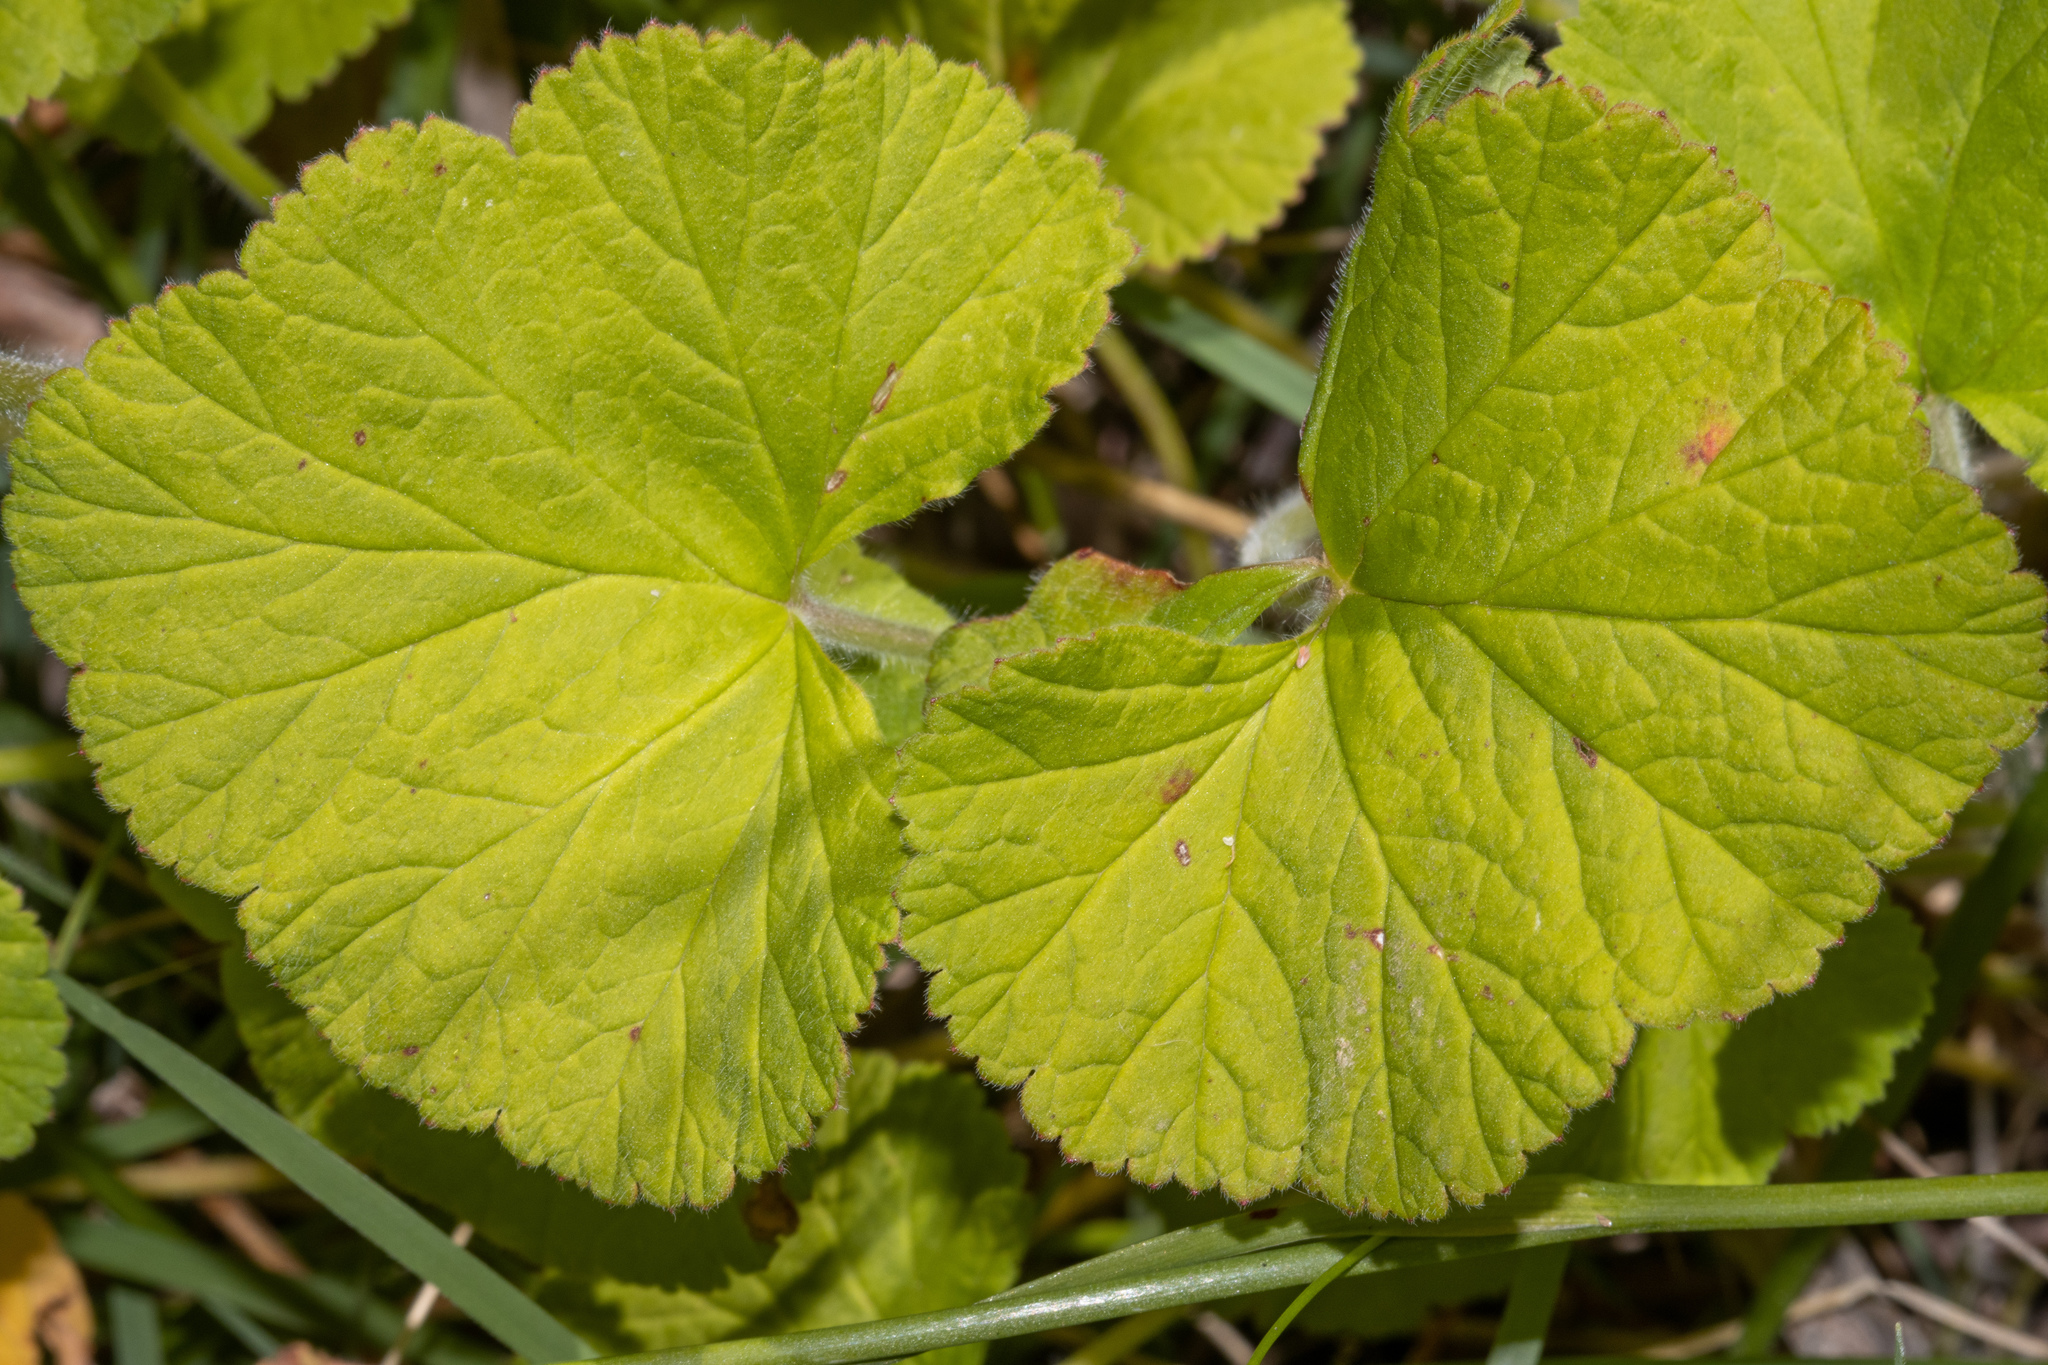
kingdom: Plantae
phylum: Tracheophyta
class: Magnoliopsida
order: Geraniales
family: Geraniaceae
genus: Pelargonium
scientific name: Pelargonium australe
